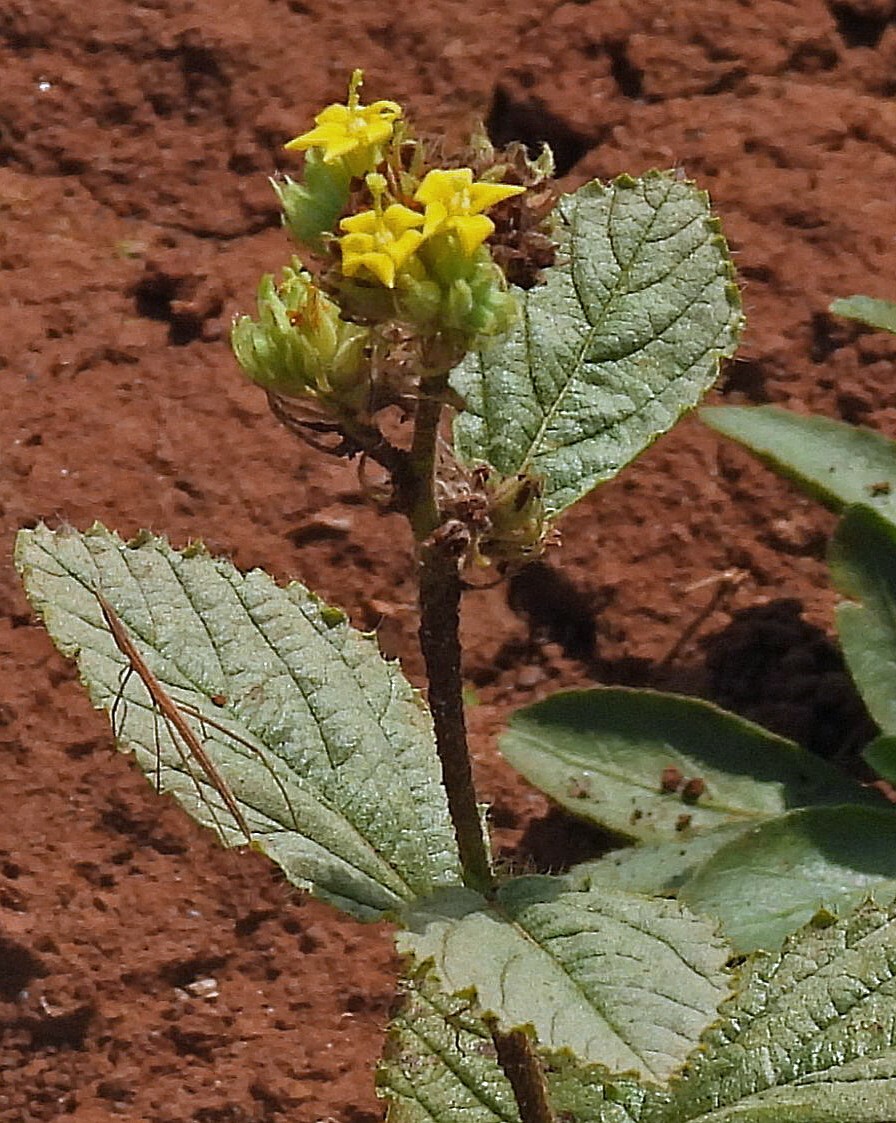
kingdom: Plantae
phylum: Tracheophyta
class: Magnoliopsida
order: Malvales
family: Malvaceae
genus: Waltheria
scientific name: Waltheria communis
